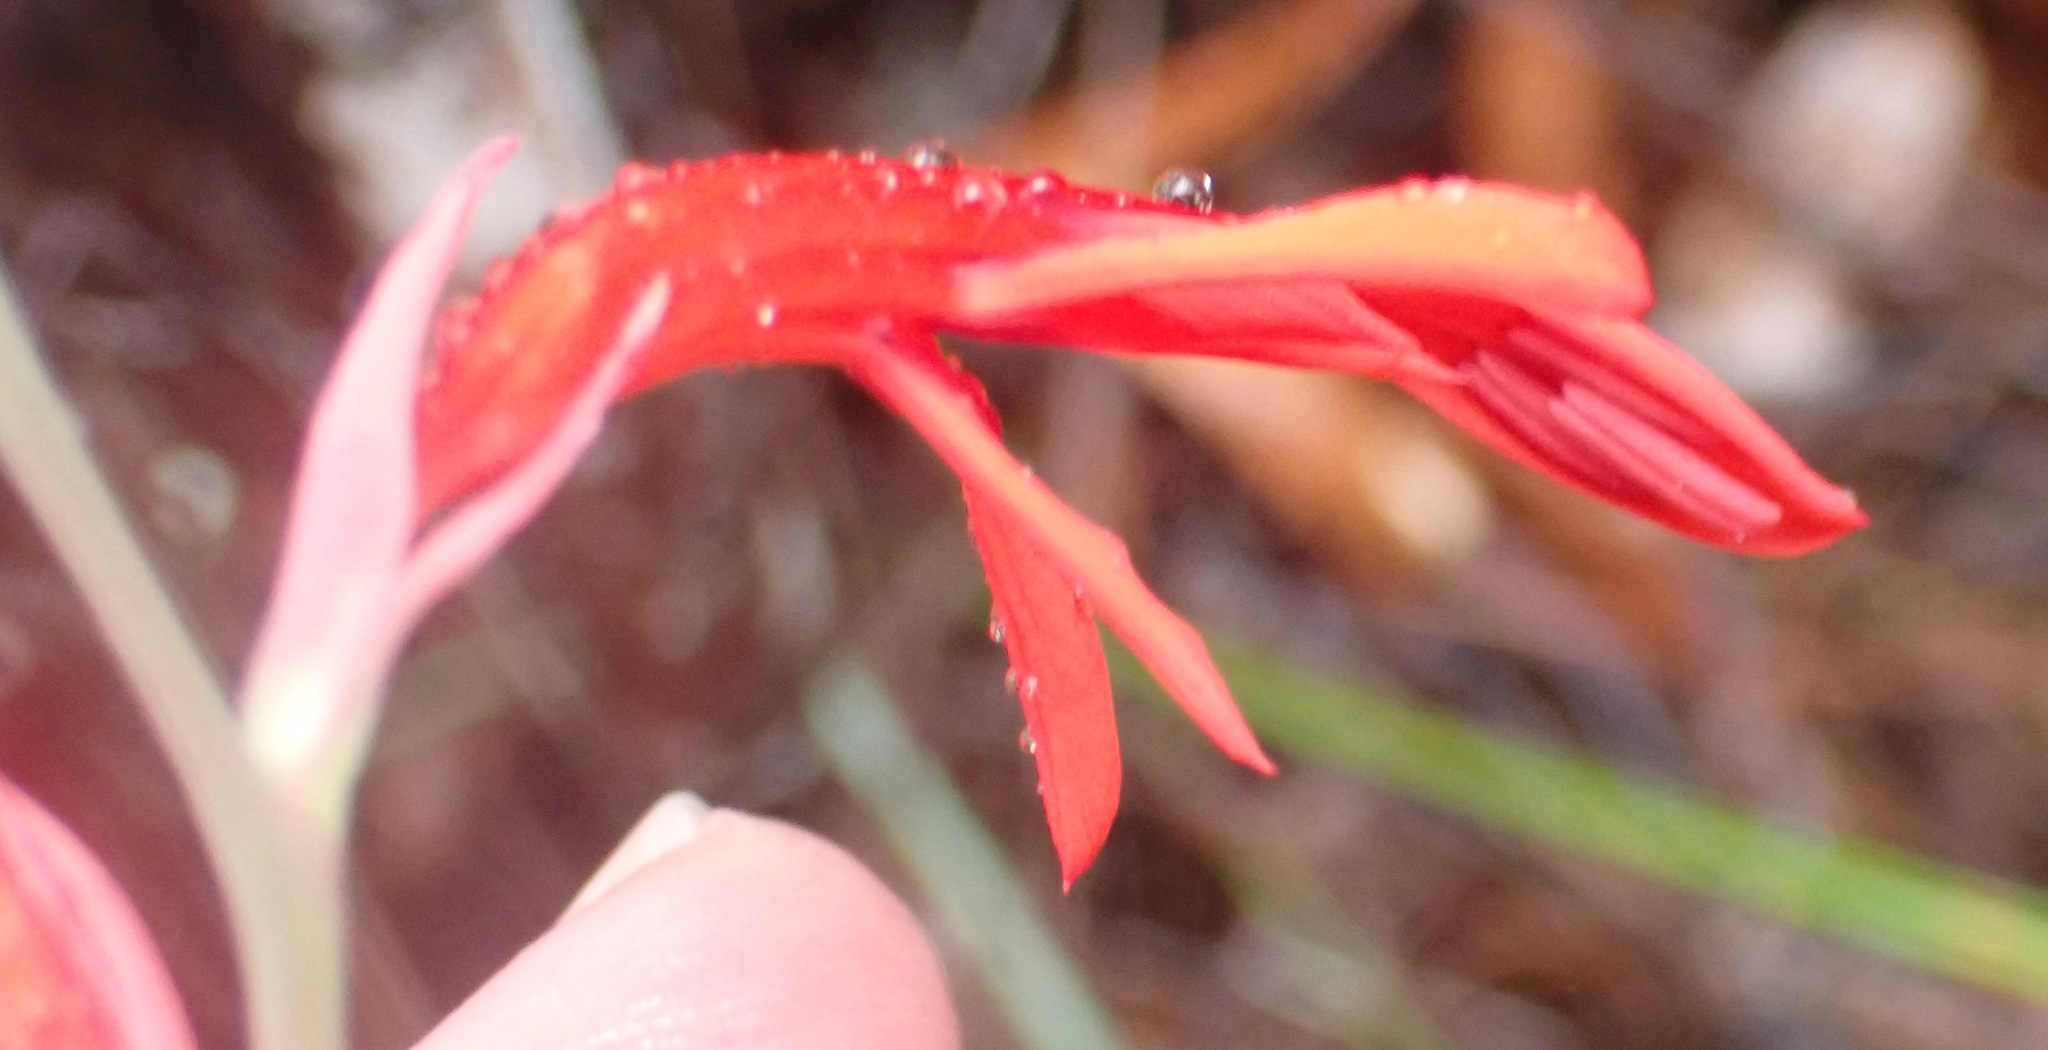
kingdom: Plantae
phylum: Tracheophyta
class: Liliopsida
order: Asparagales
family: Iridaceae
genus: Tritoniopsis
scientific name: Tritoniopsis caffra
